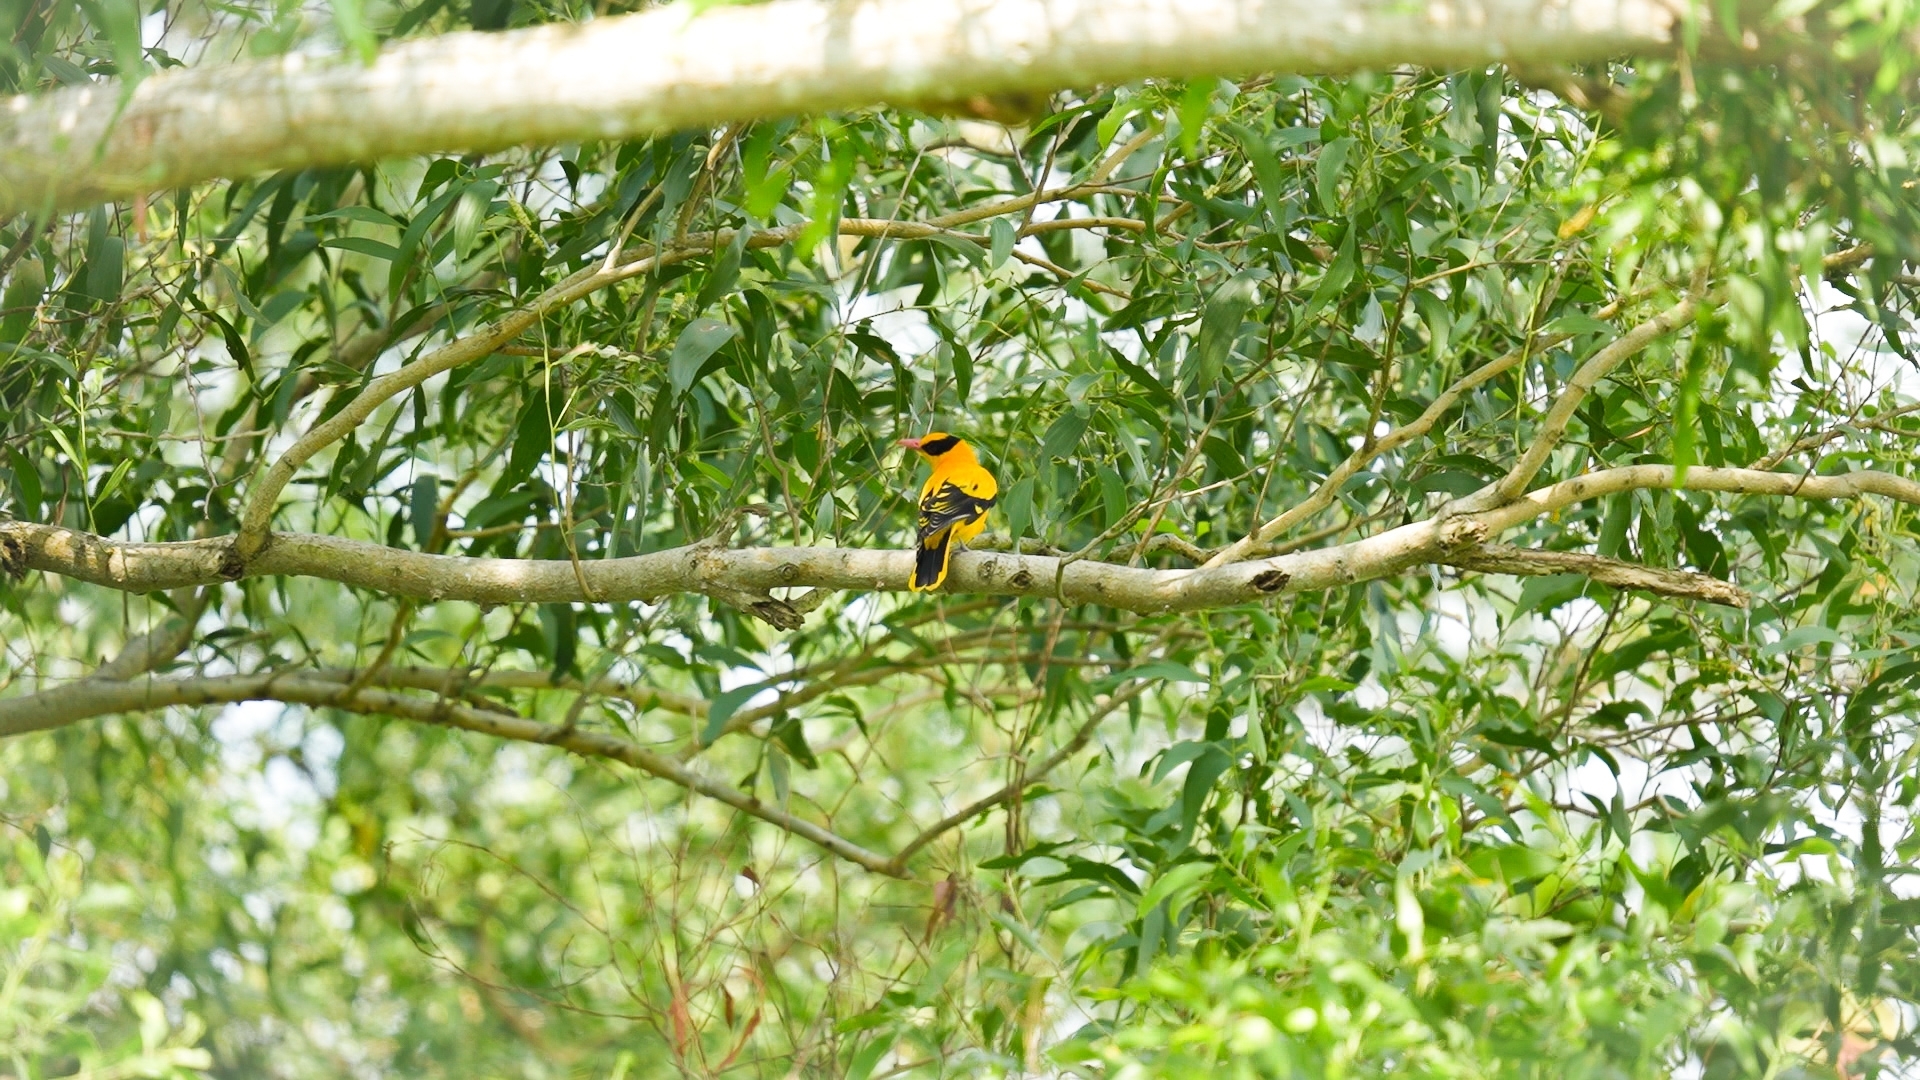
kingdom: Animalia
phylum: Chordata
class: Aves
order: Passeriformes
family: Oriolidae
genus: Oriolus
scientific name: Oriolus chinensis
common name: Black-naped oriole
